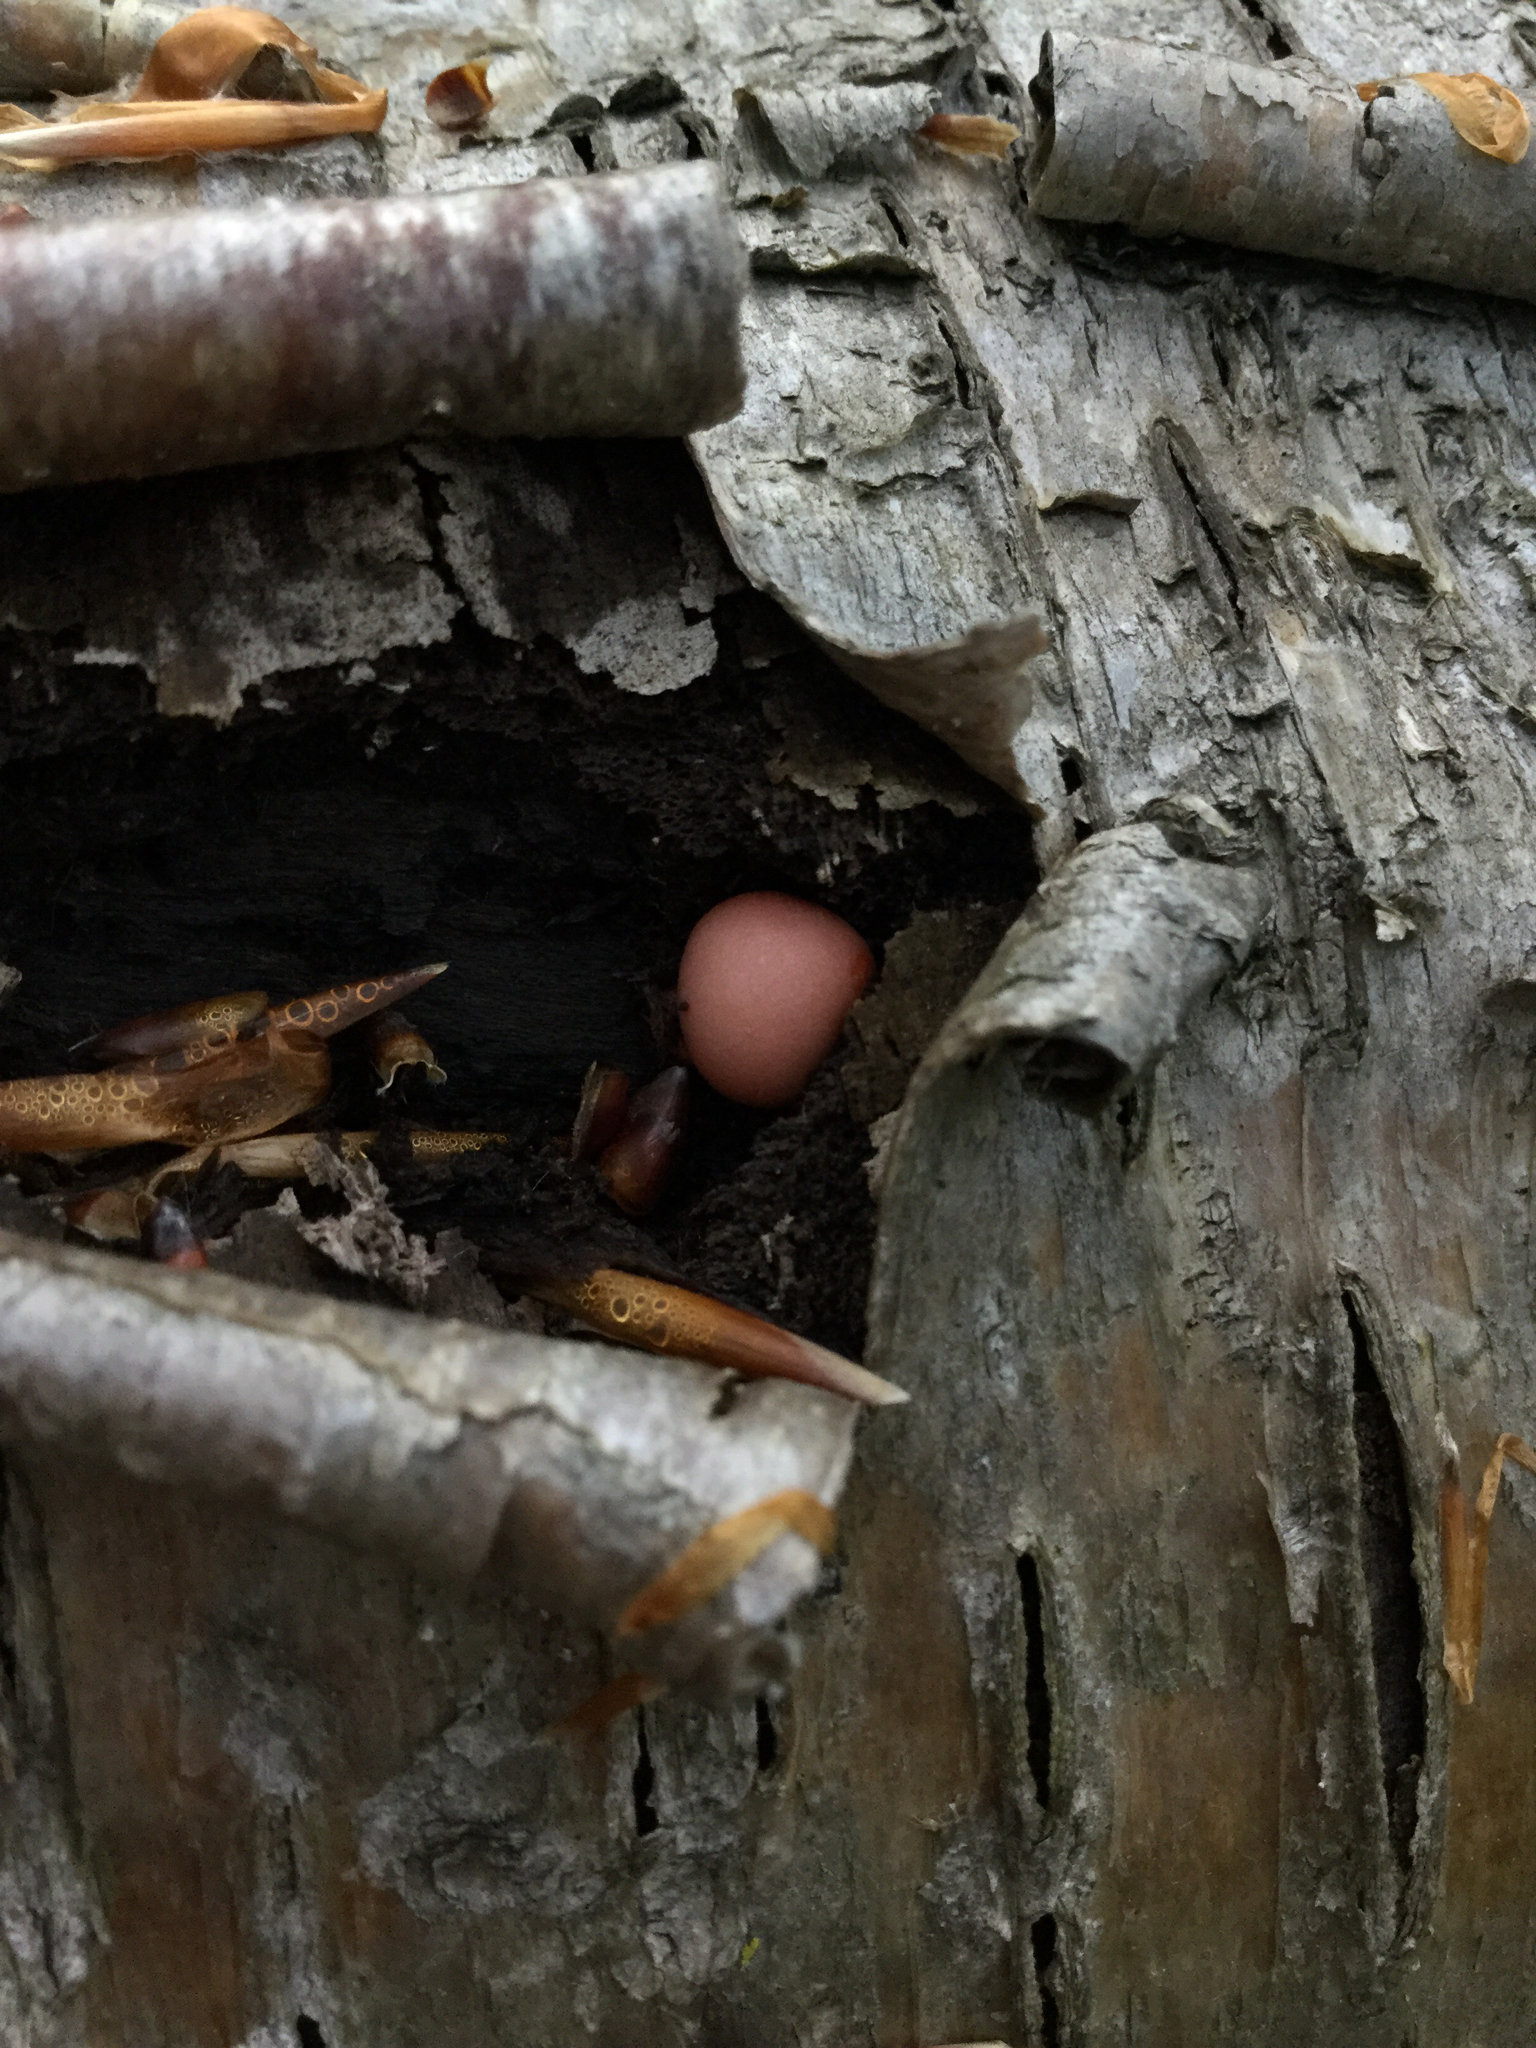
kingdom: Protozoa
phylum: Mycetozoa
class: Myxomycetes
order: Cribrariales
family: Tubiferaceae
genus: Lycogala
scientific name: Lycogala epidendrum
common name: Wolf's milk
